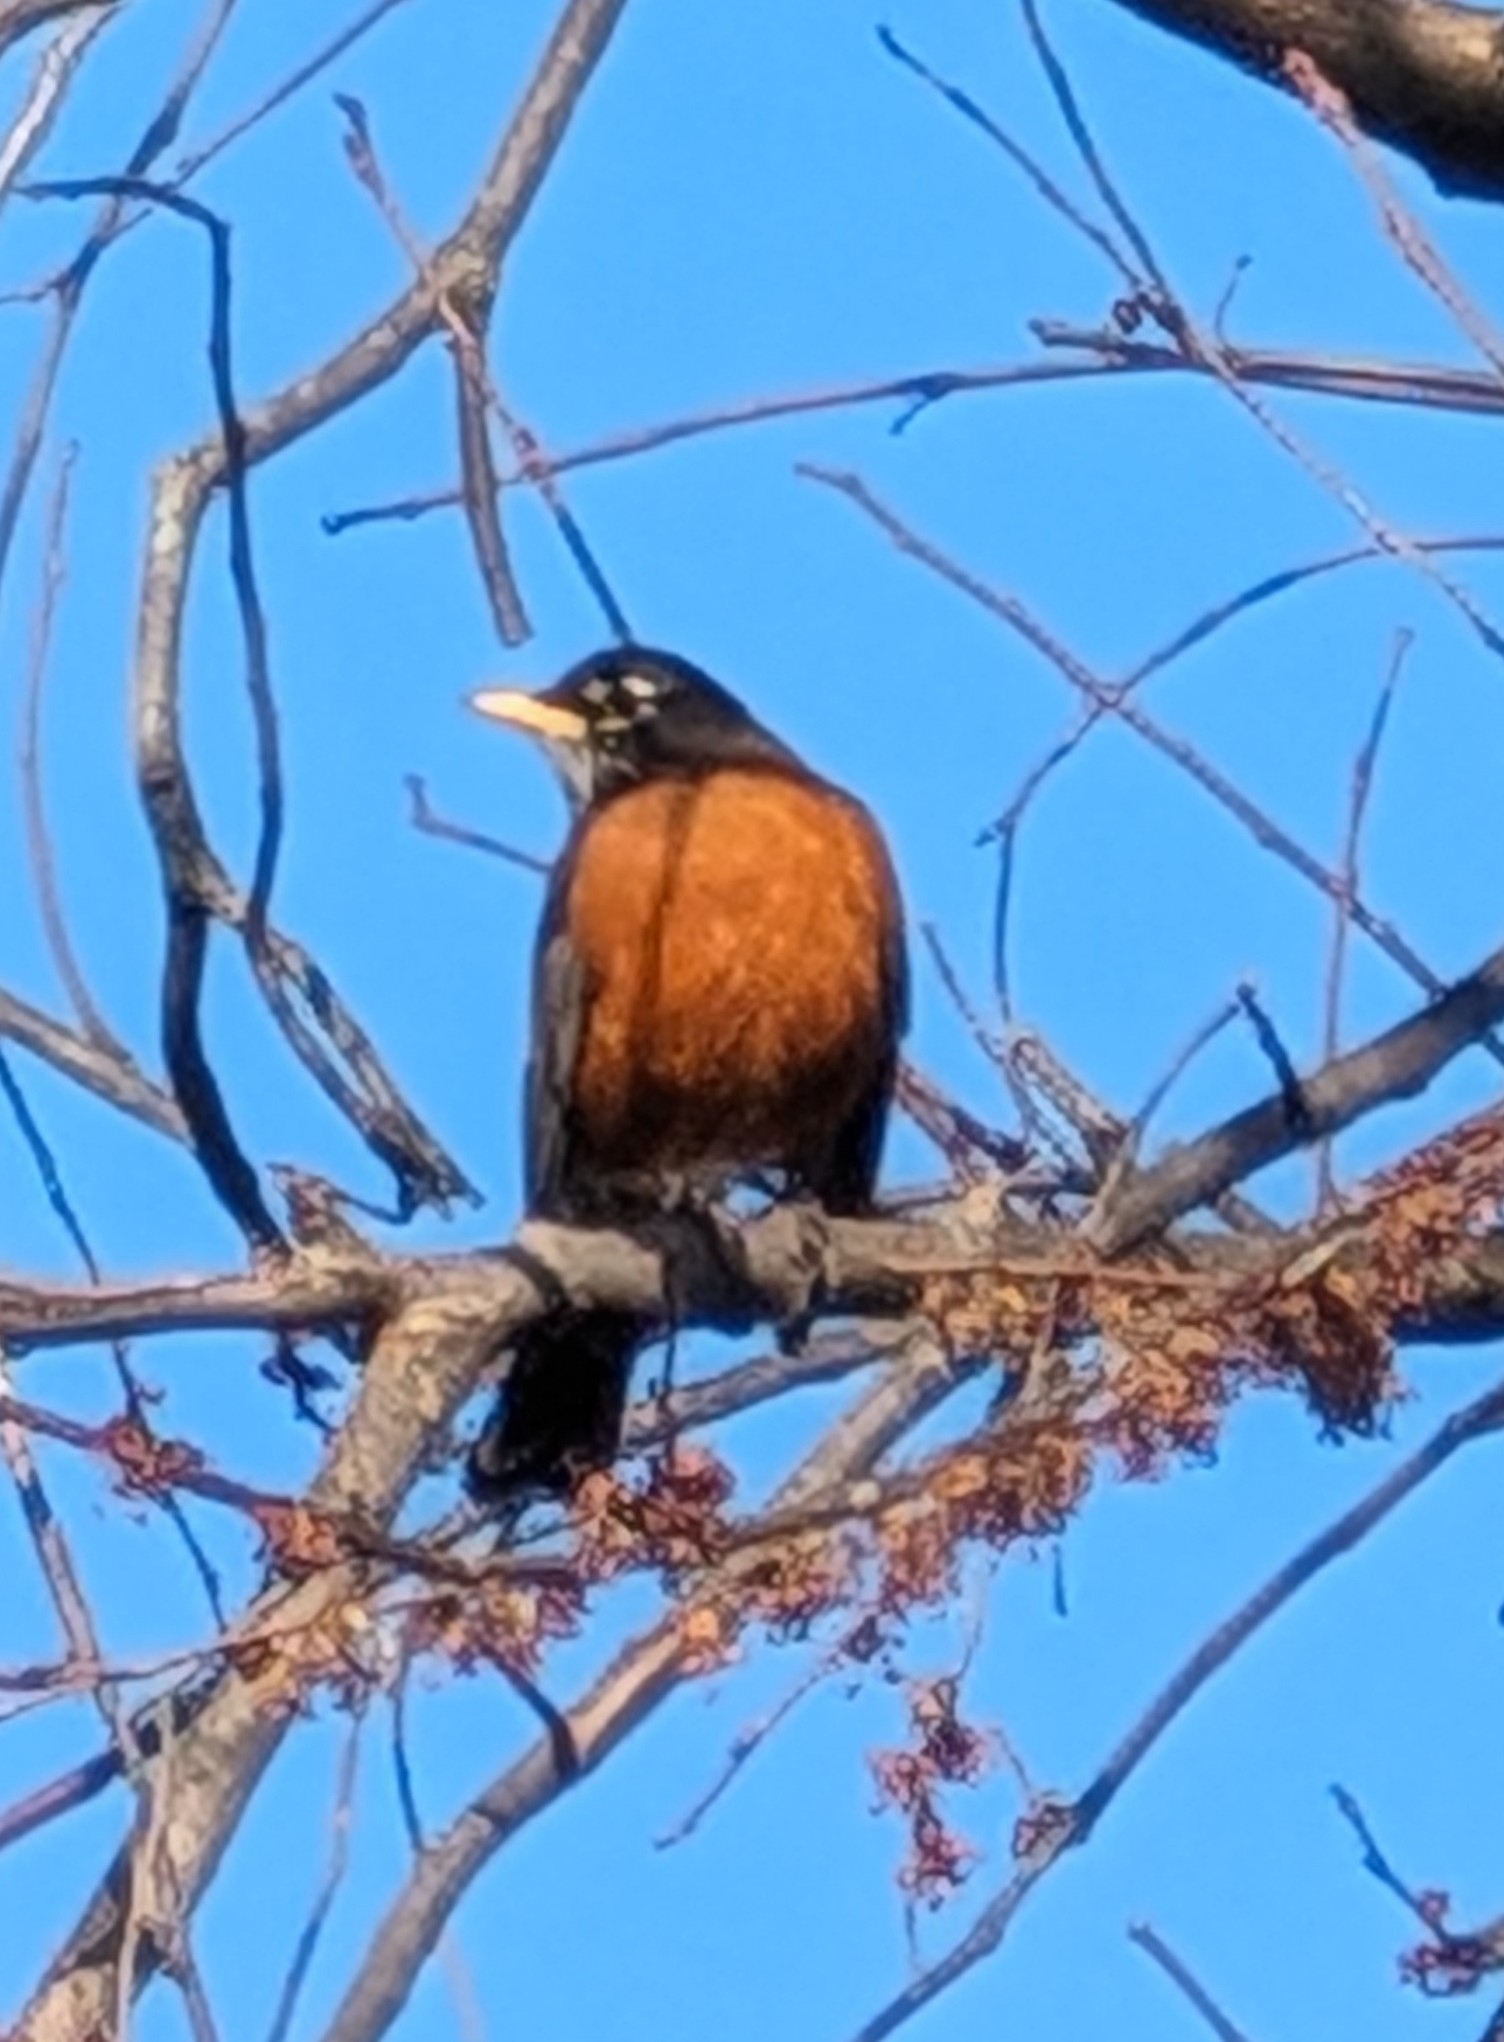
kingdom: Animalia
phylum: Chordata
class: Aves
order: Passeriformes
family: Turdidae
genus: Turdus
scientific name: Turdus migratorius
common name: American robin
